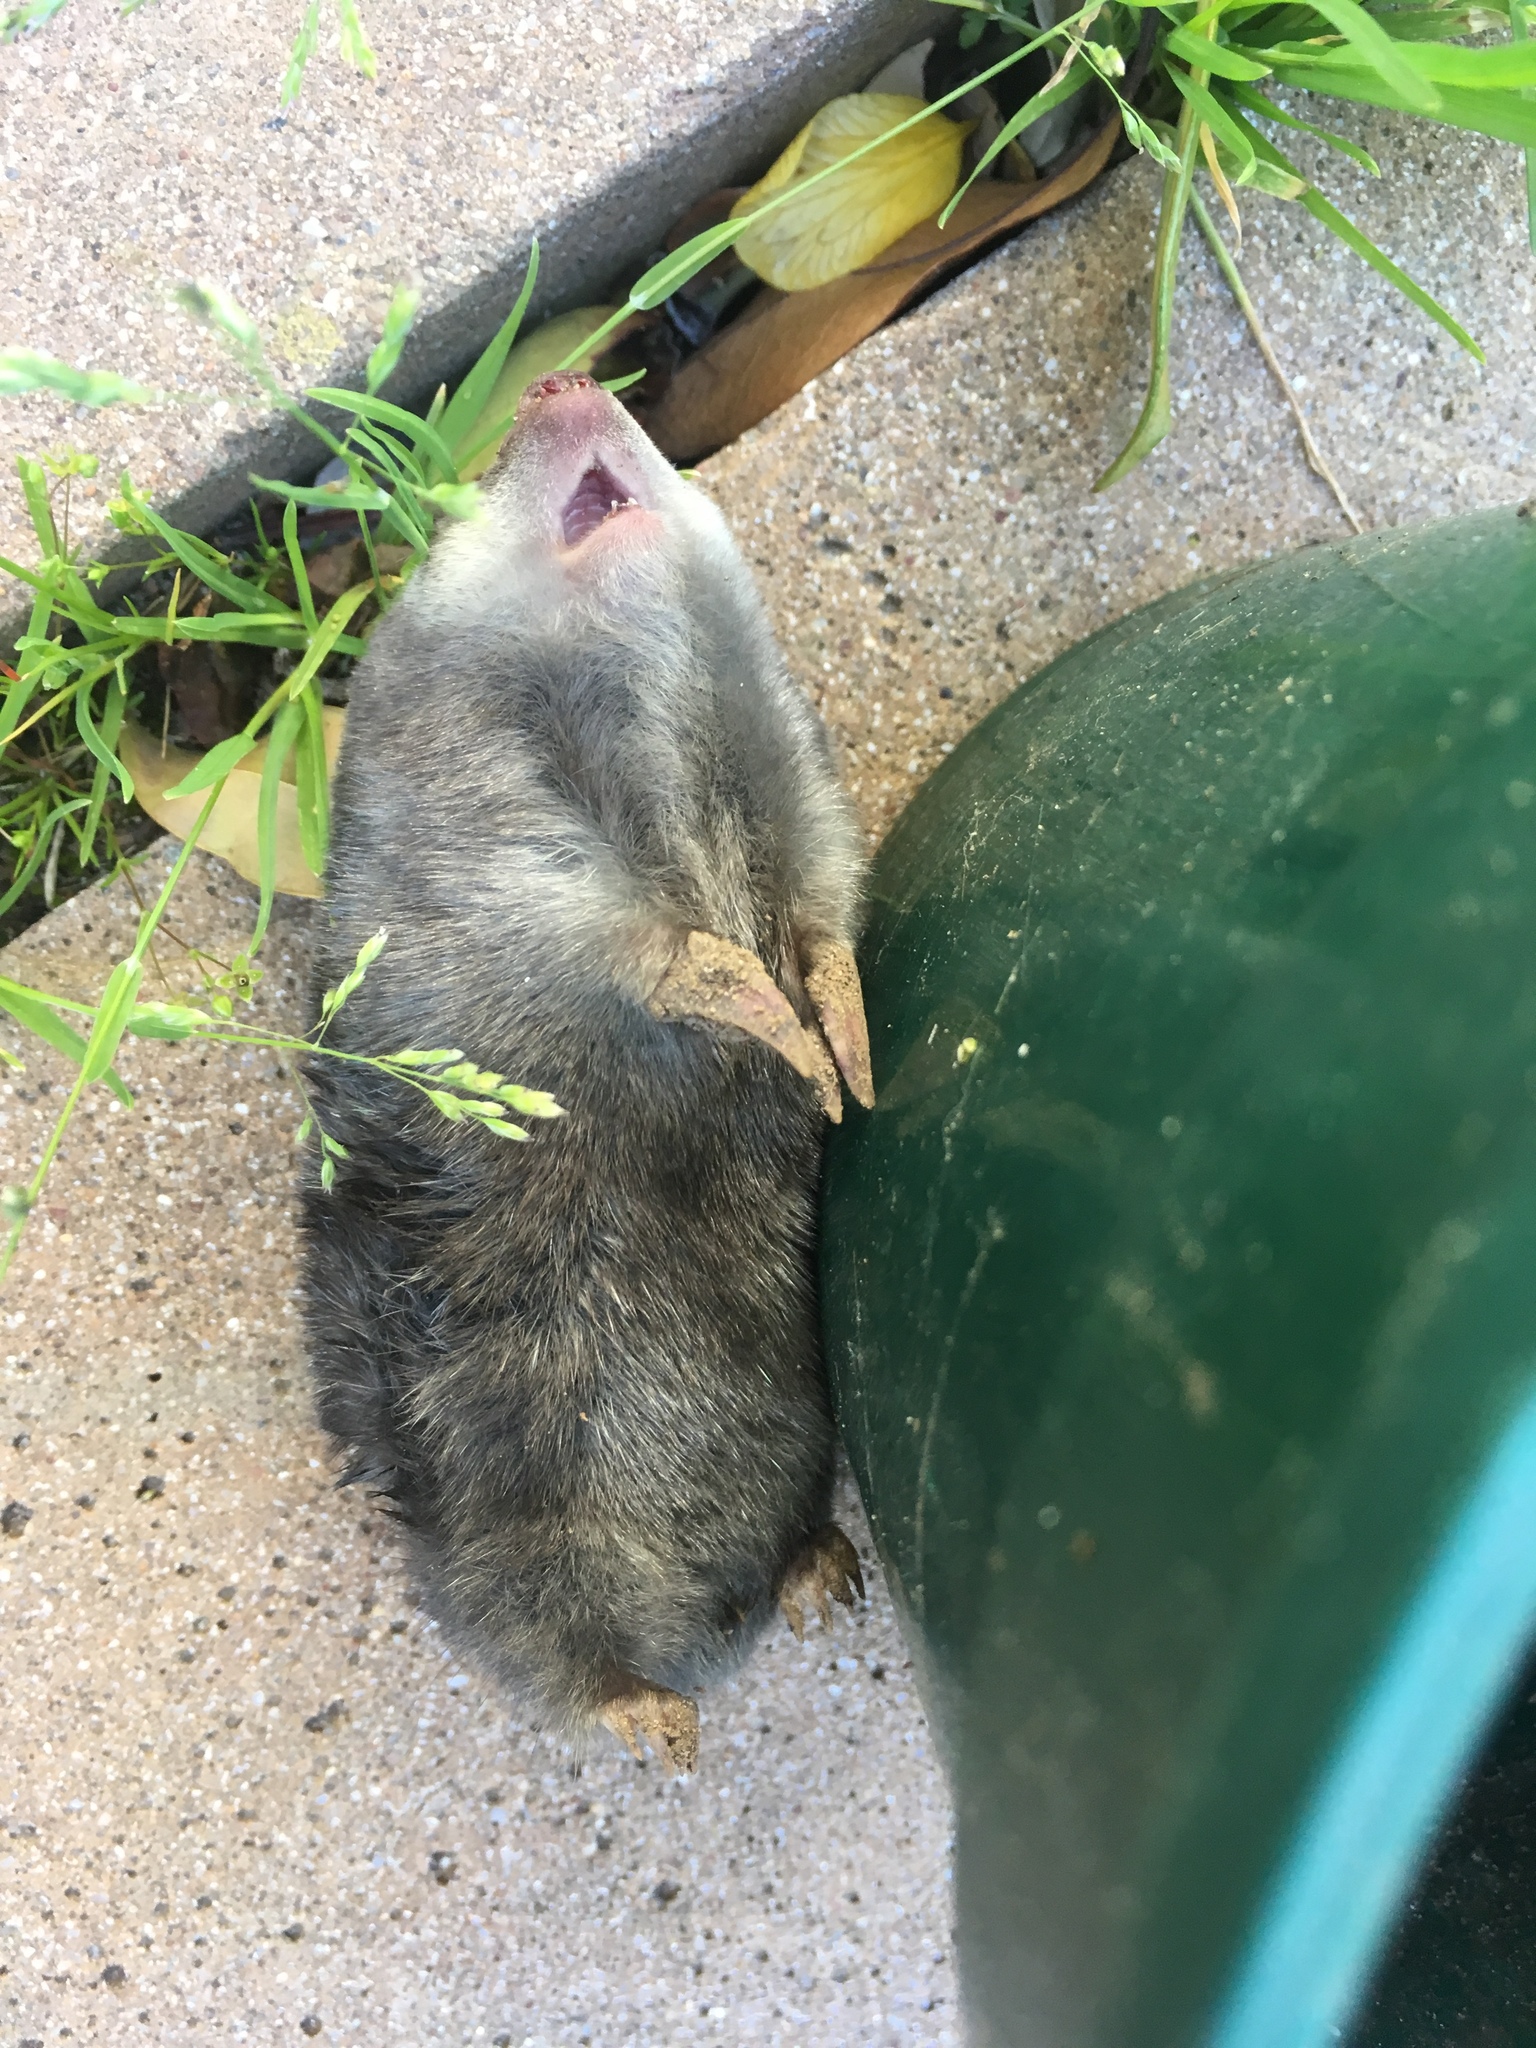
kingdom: Animalia
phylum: Chordata
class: Mammalia
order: Afrosoricida
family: Chrysochloridae
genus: Chrysochloris
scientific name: Chrysochloris asiatica
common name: Cape golden mole
